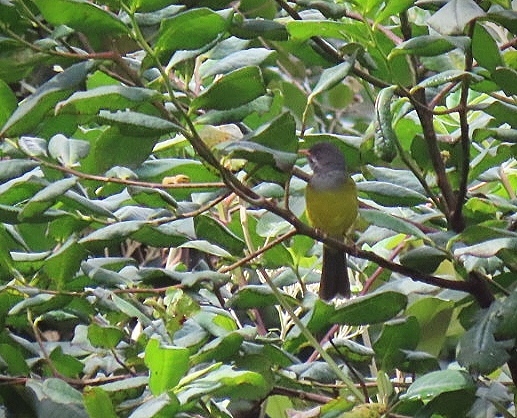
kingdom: Animalia
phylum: Chordata
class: Aves
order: Passeriformes
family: Thraupidae
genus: Cnemoscopus
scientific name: Cnemoscopus rubrirostris
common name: Grey-hooded bush tanager
